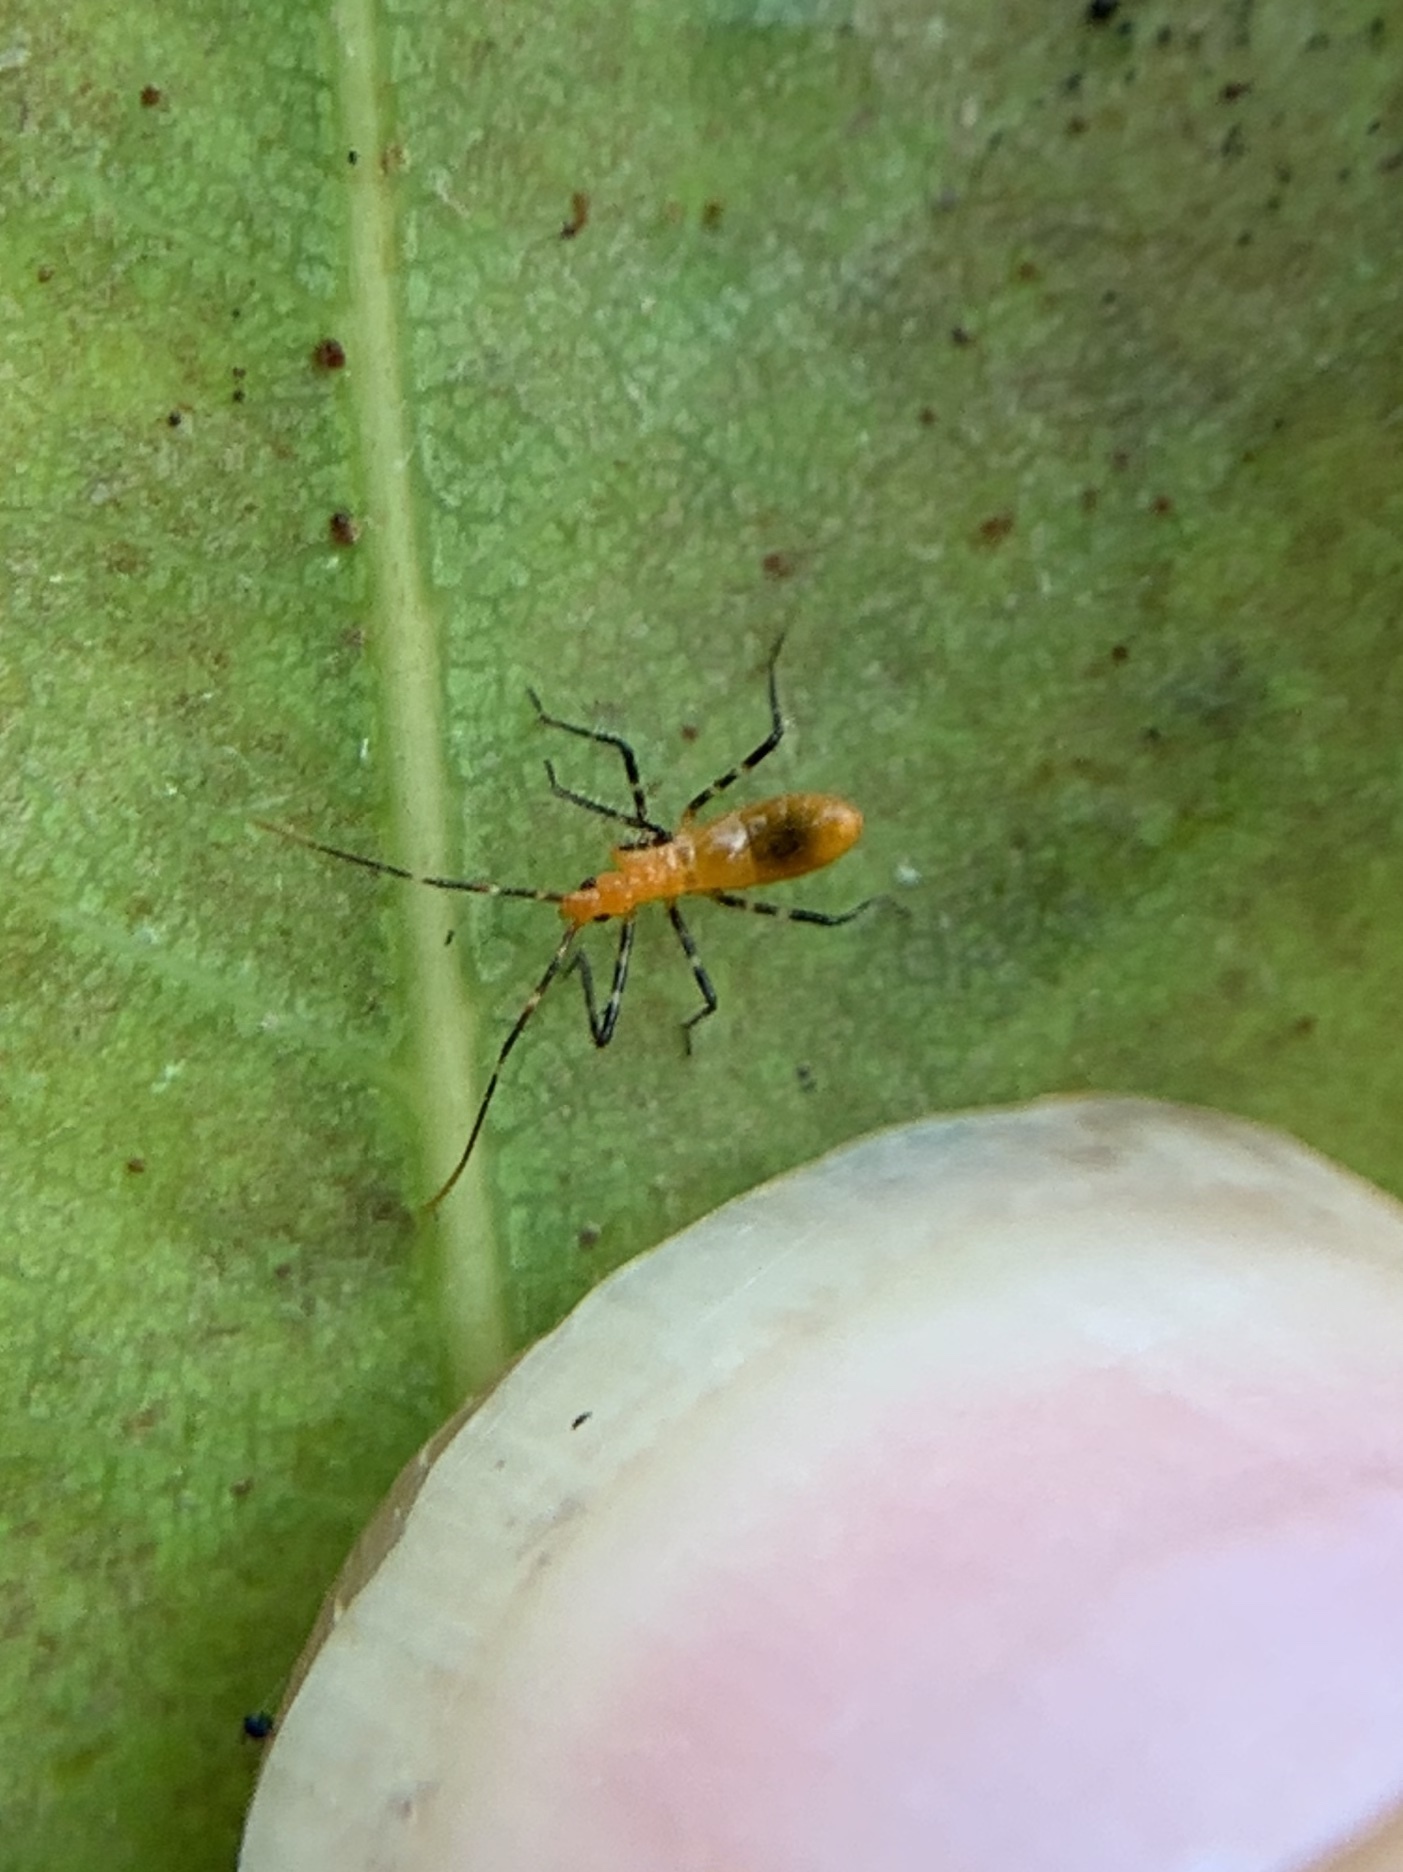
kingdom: Animalia
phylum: Arthropoda
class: Insecta
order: Hemiptera
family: Reduviidae
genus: Zelus
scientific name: Zelus longipes
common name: Milkweed assassin bug
